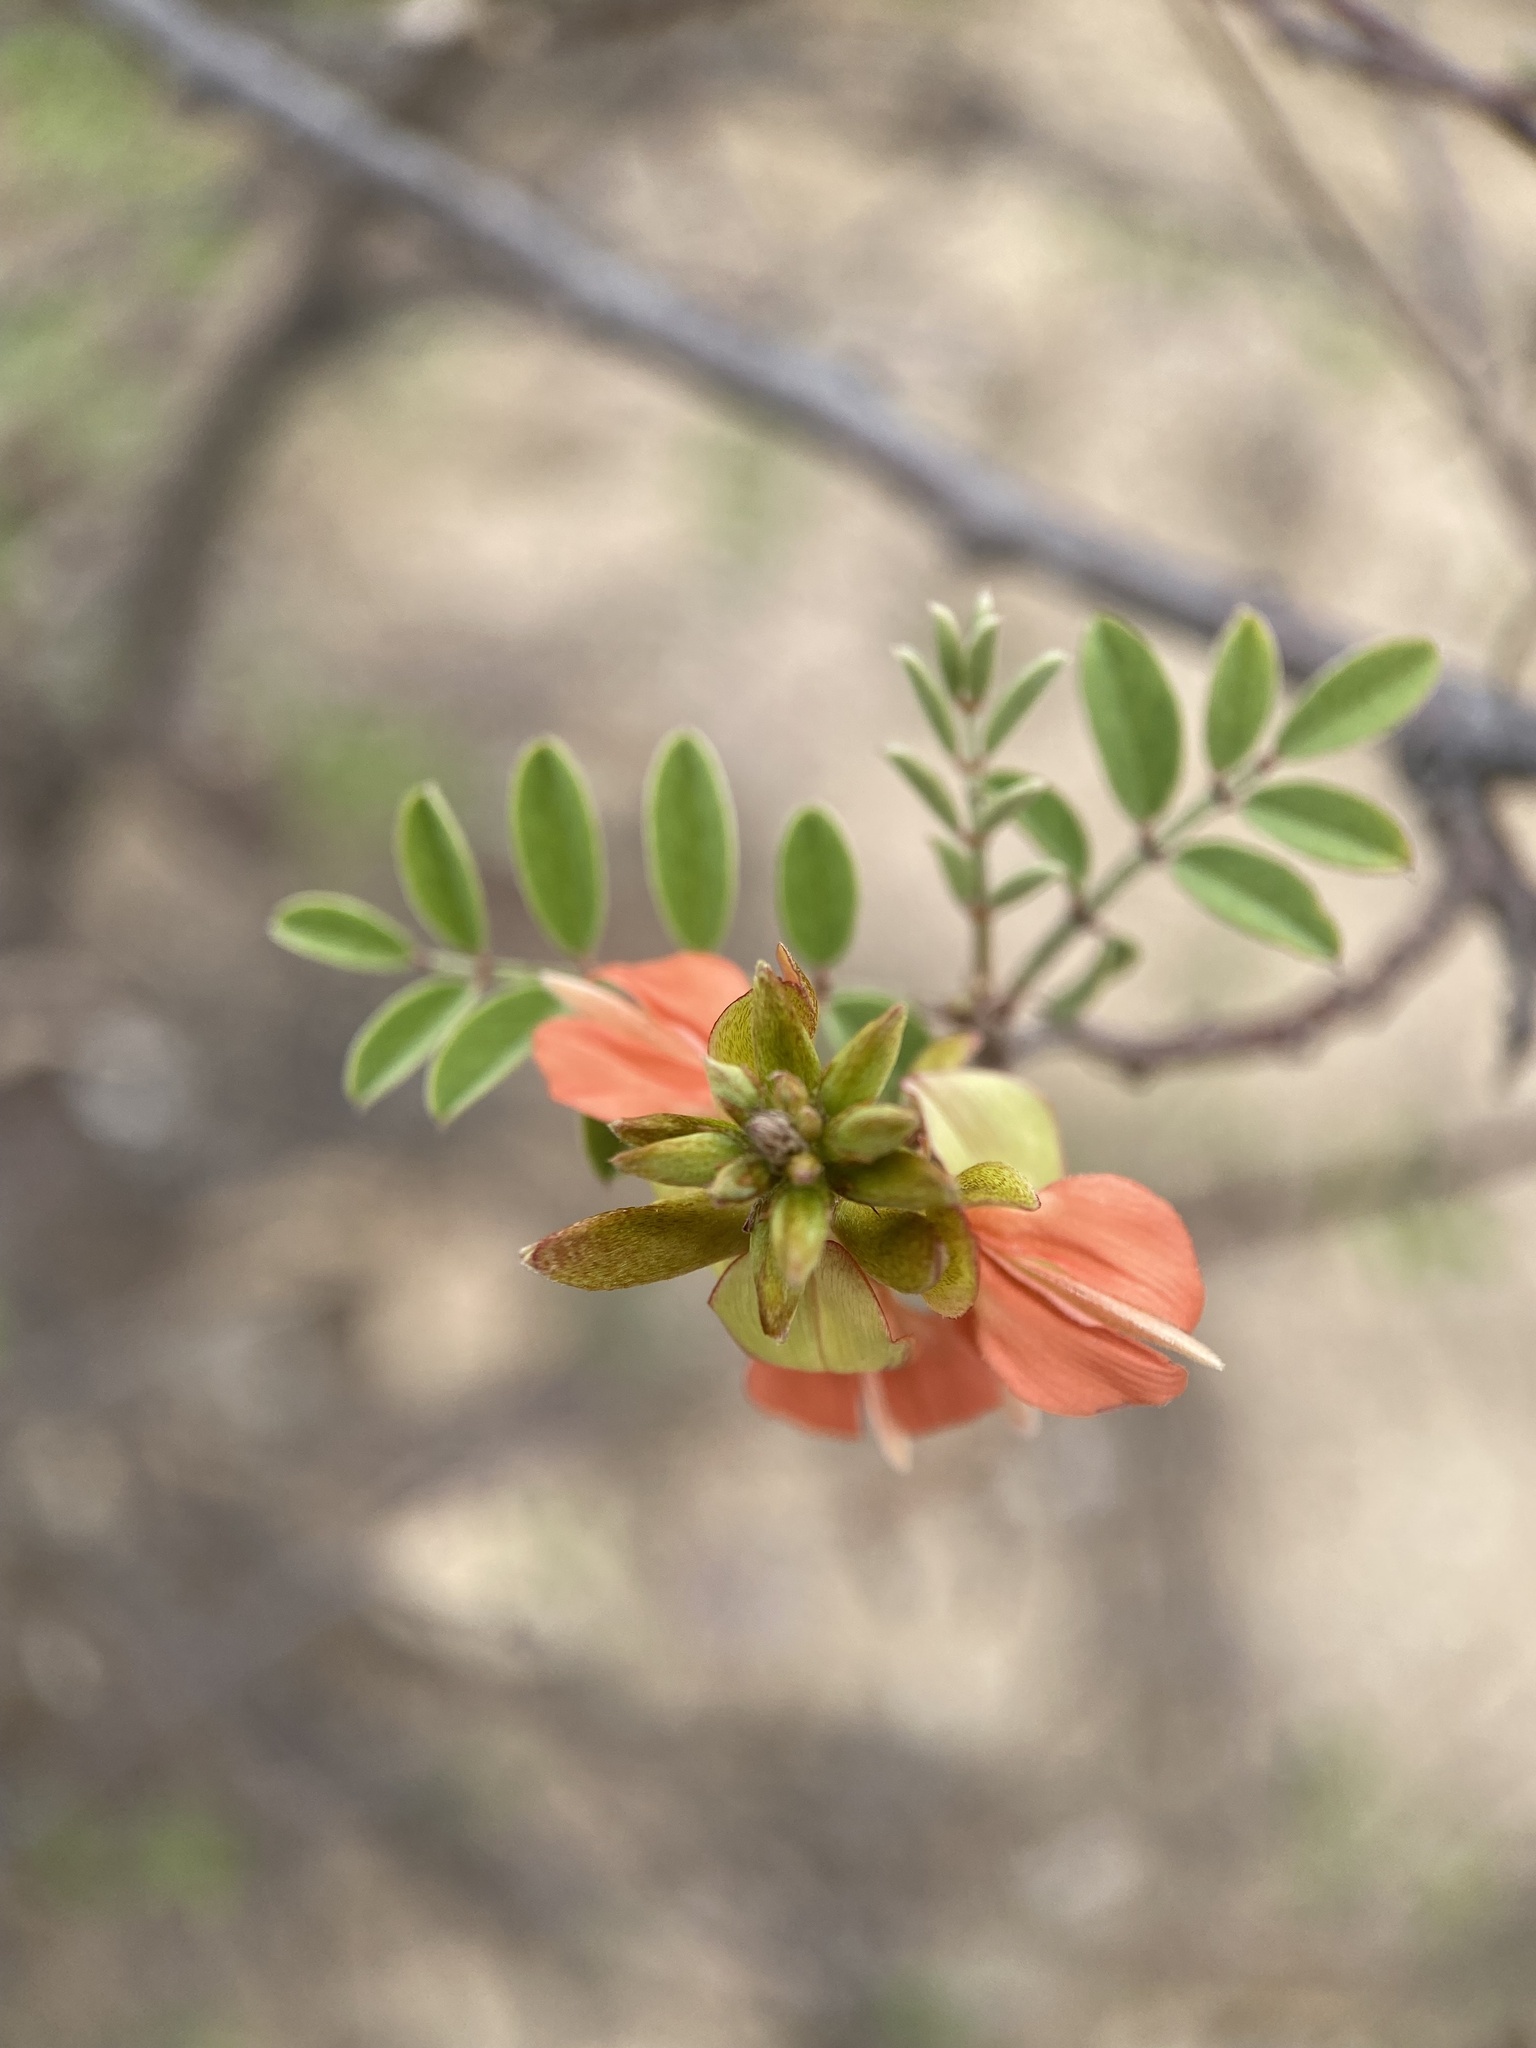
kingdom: Plantae
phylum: Tracheophyta
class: Magnoliopsida
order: Fabales
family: Fabaceae
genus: Indigofera
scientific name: Indigofera fruticosa
